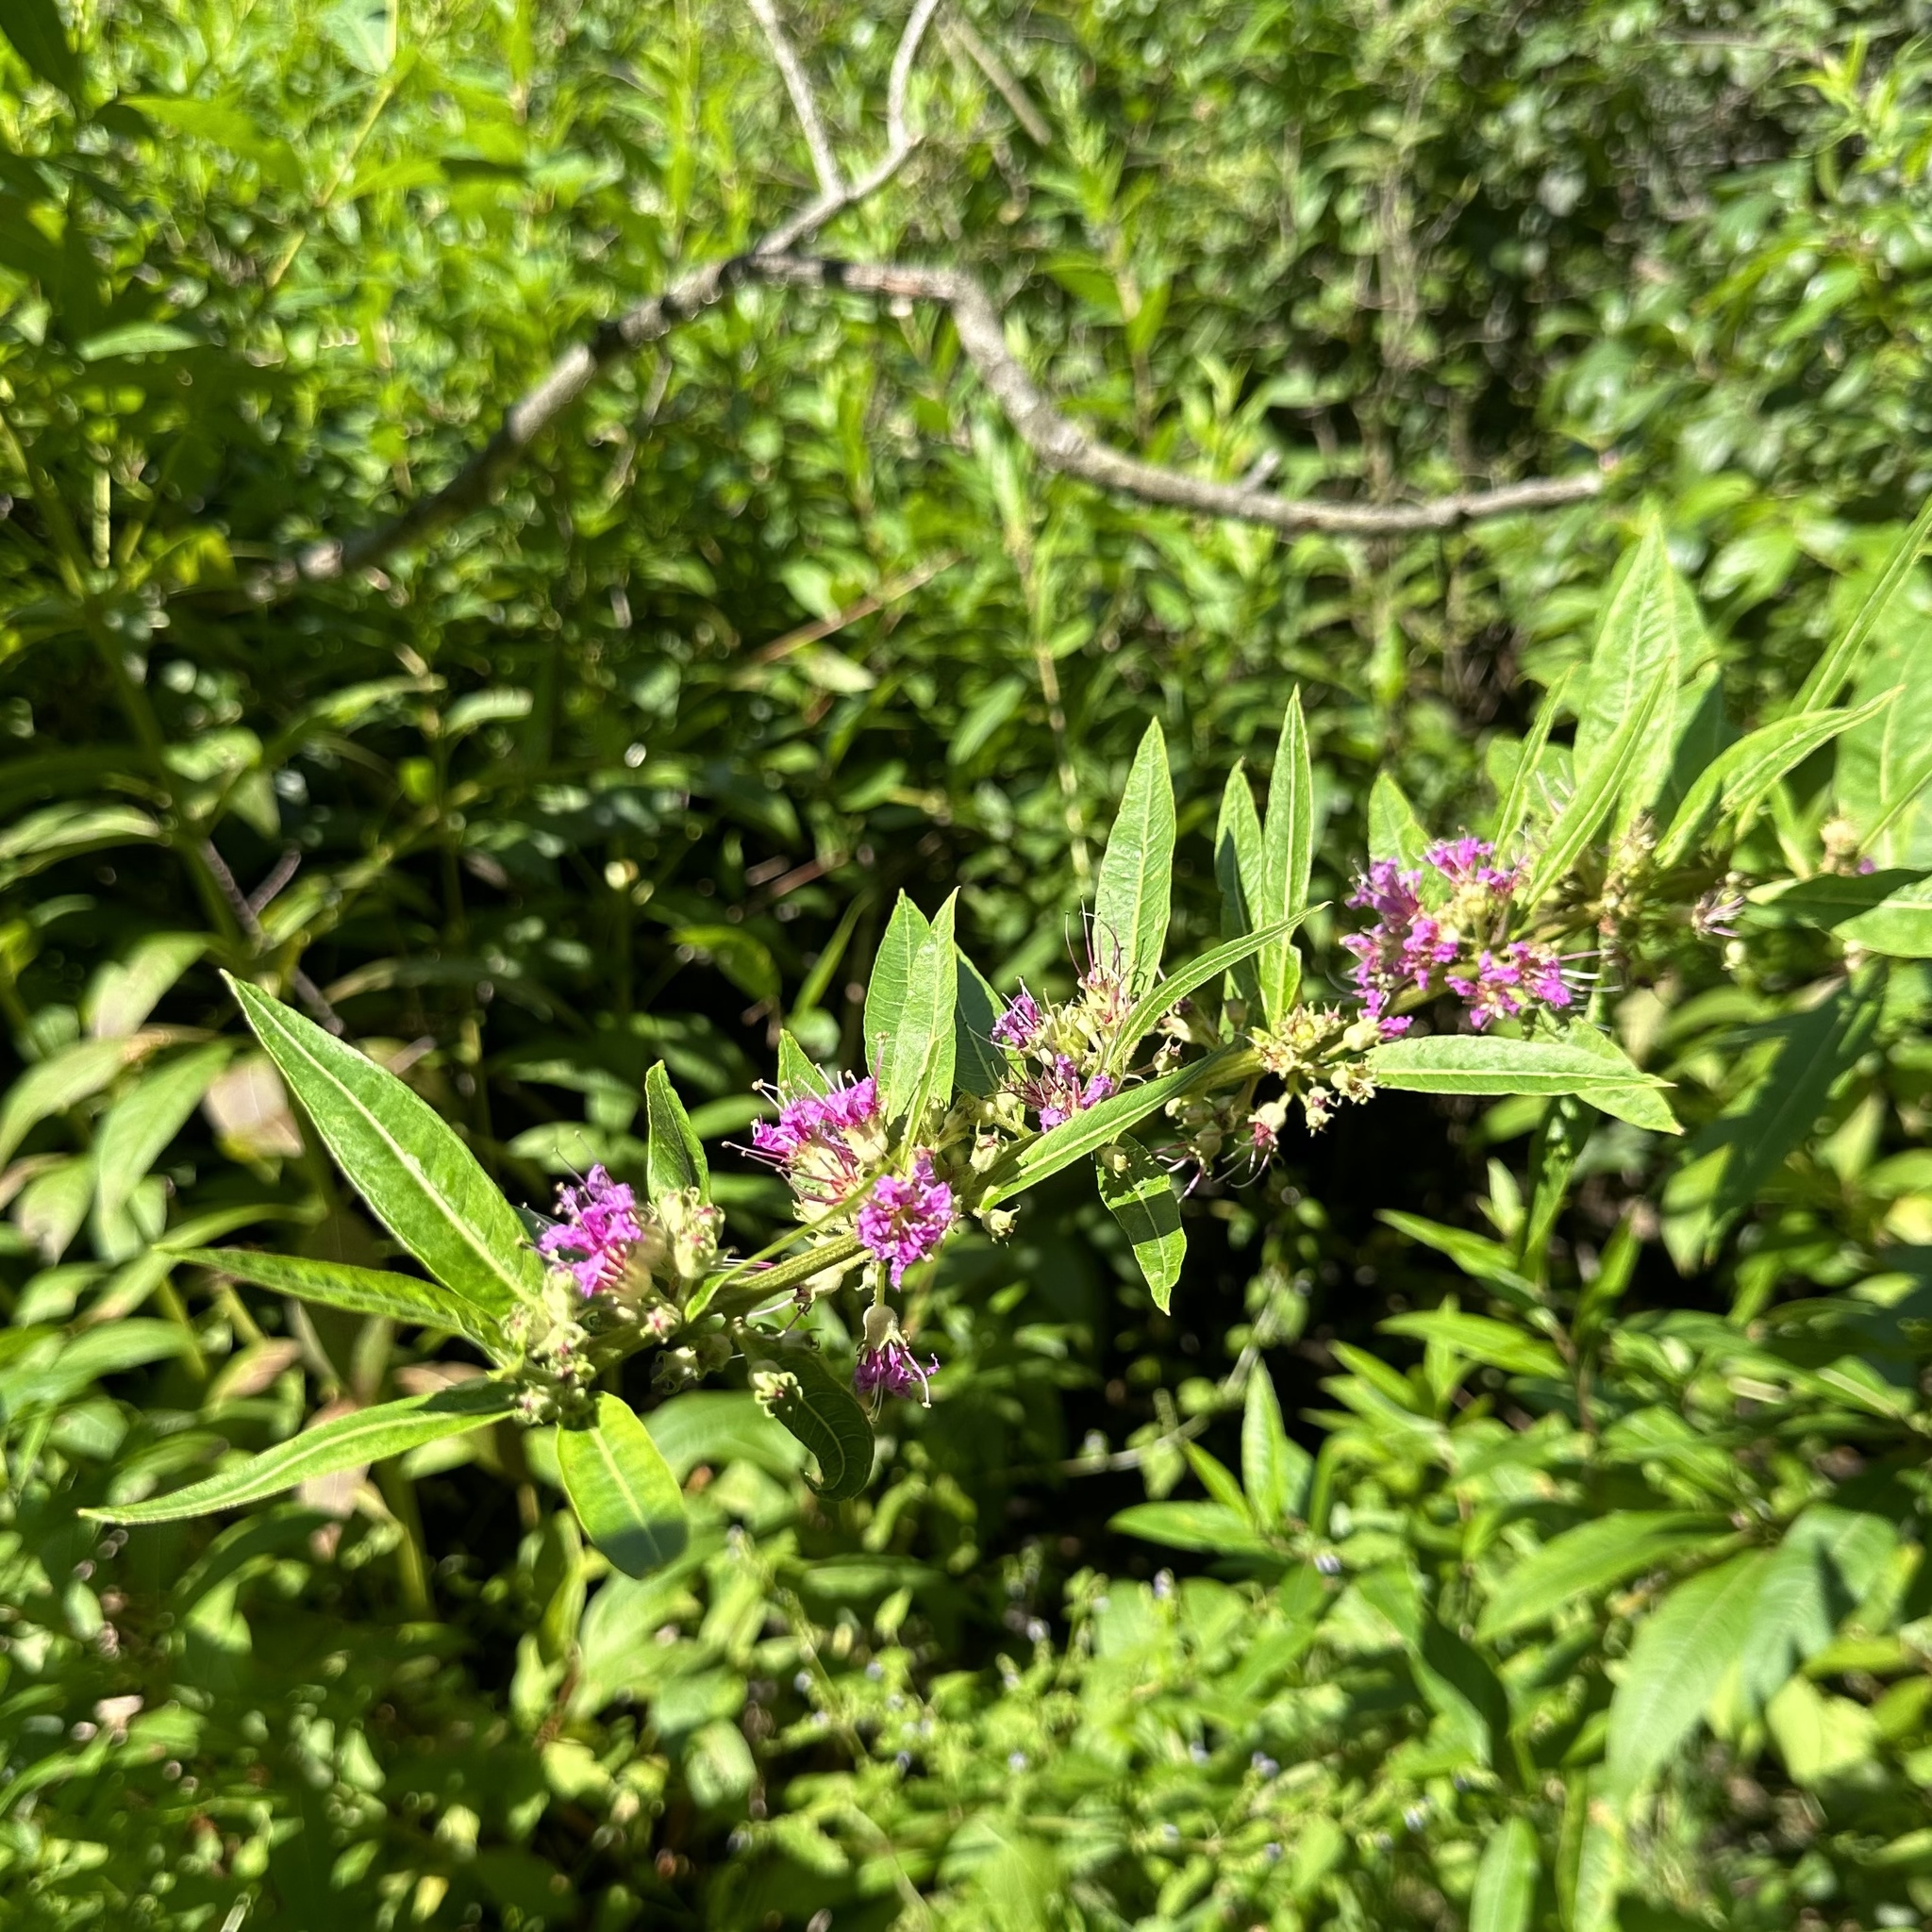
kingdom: Plantae
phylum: Tracheophyta
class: Magnoliopsida
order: Myrtales
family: Lythraceae
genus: Decodon
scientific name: Decodon verticillatus
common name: Hairy swamp loosestrife
